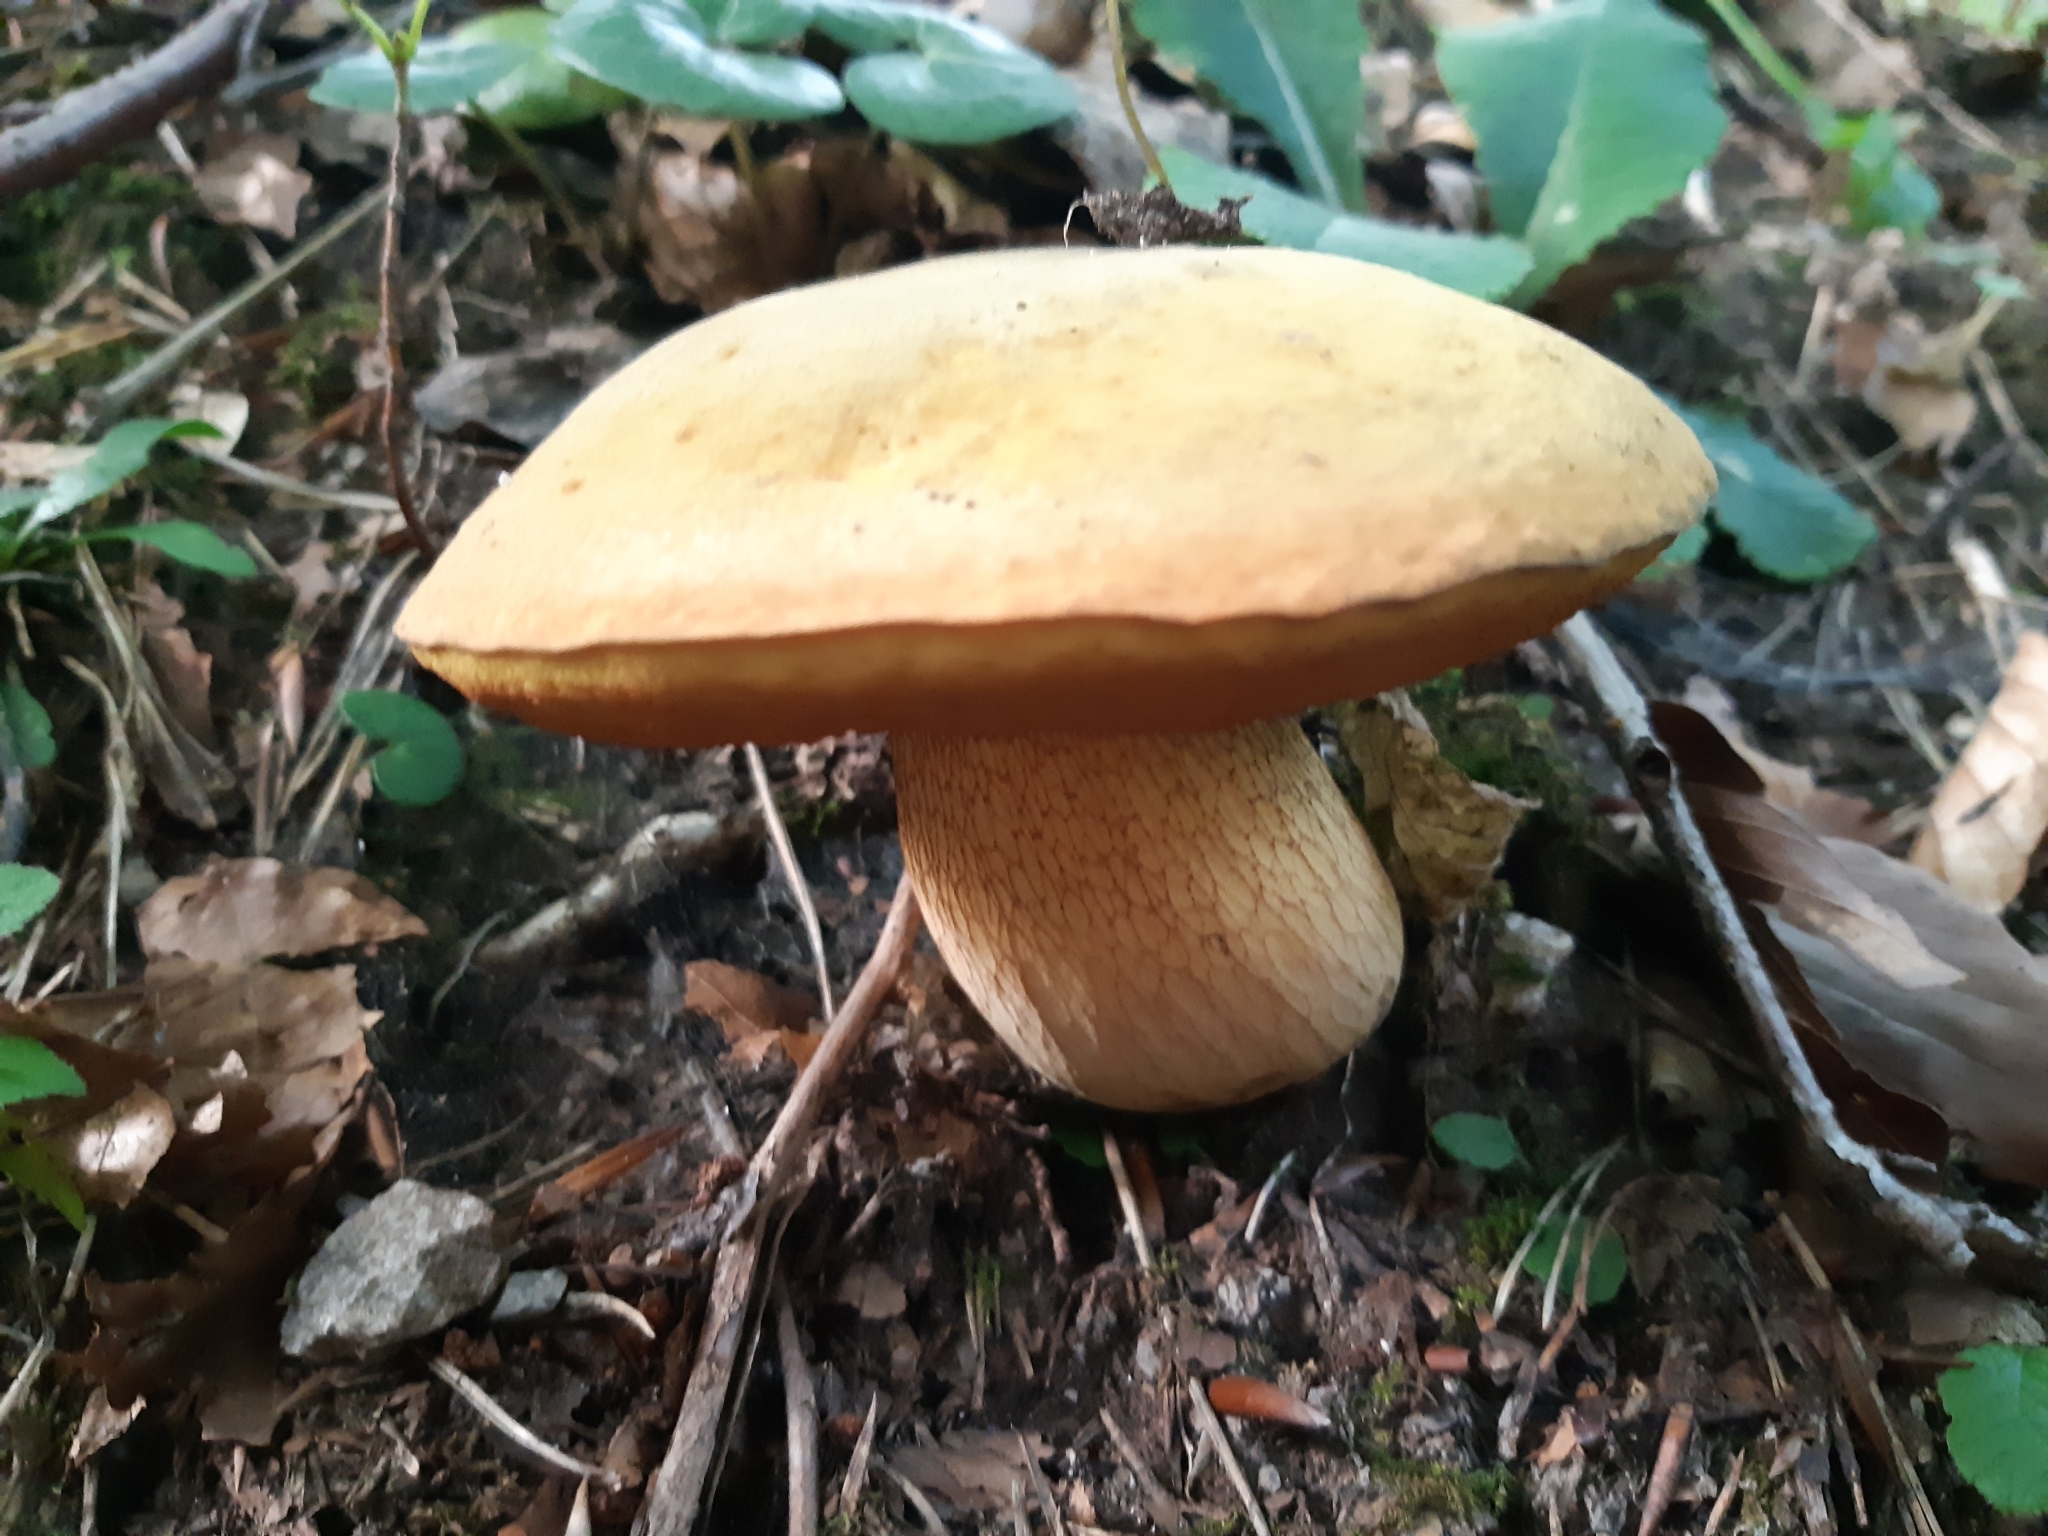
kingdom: Fungi
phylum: Basidiomycota
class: Agaricomycetes
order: Boletales
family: Boletaceae
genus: Suillellus
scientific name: Suillellus luridus
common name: Lurid bolete
